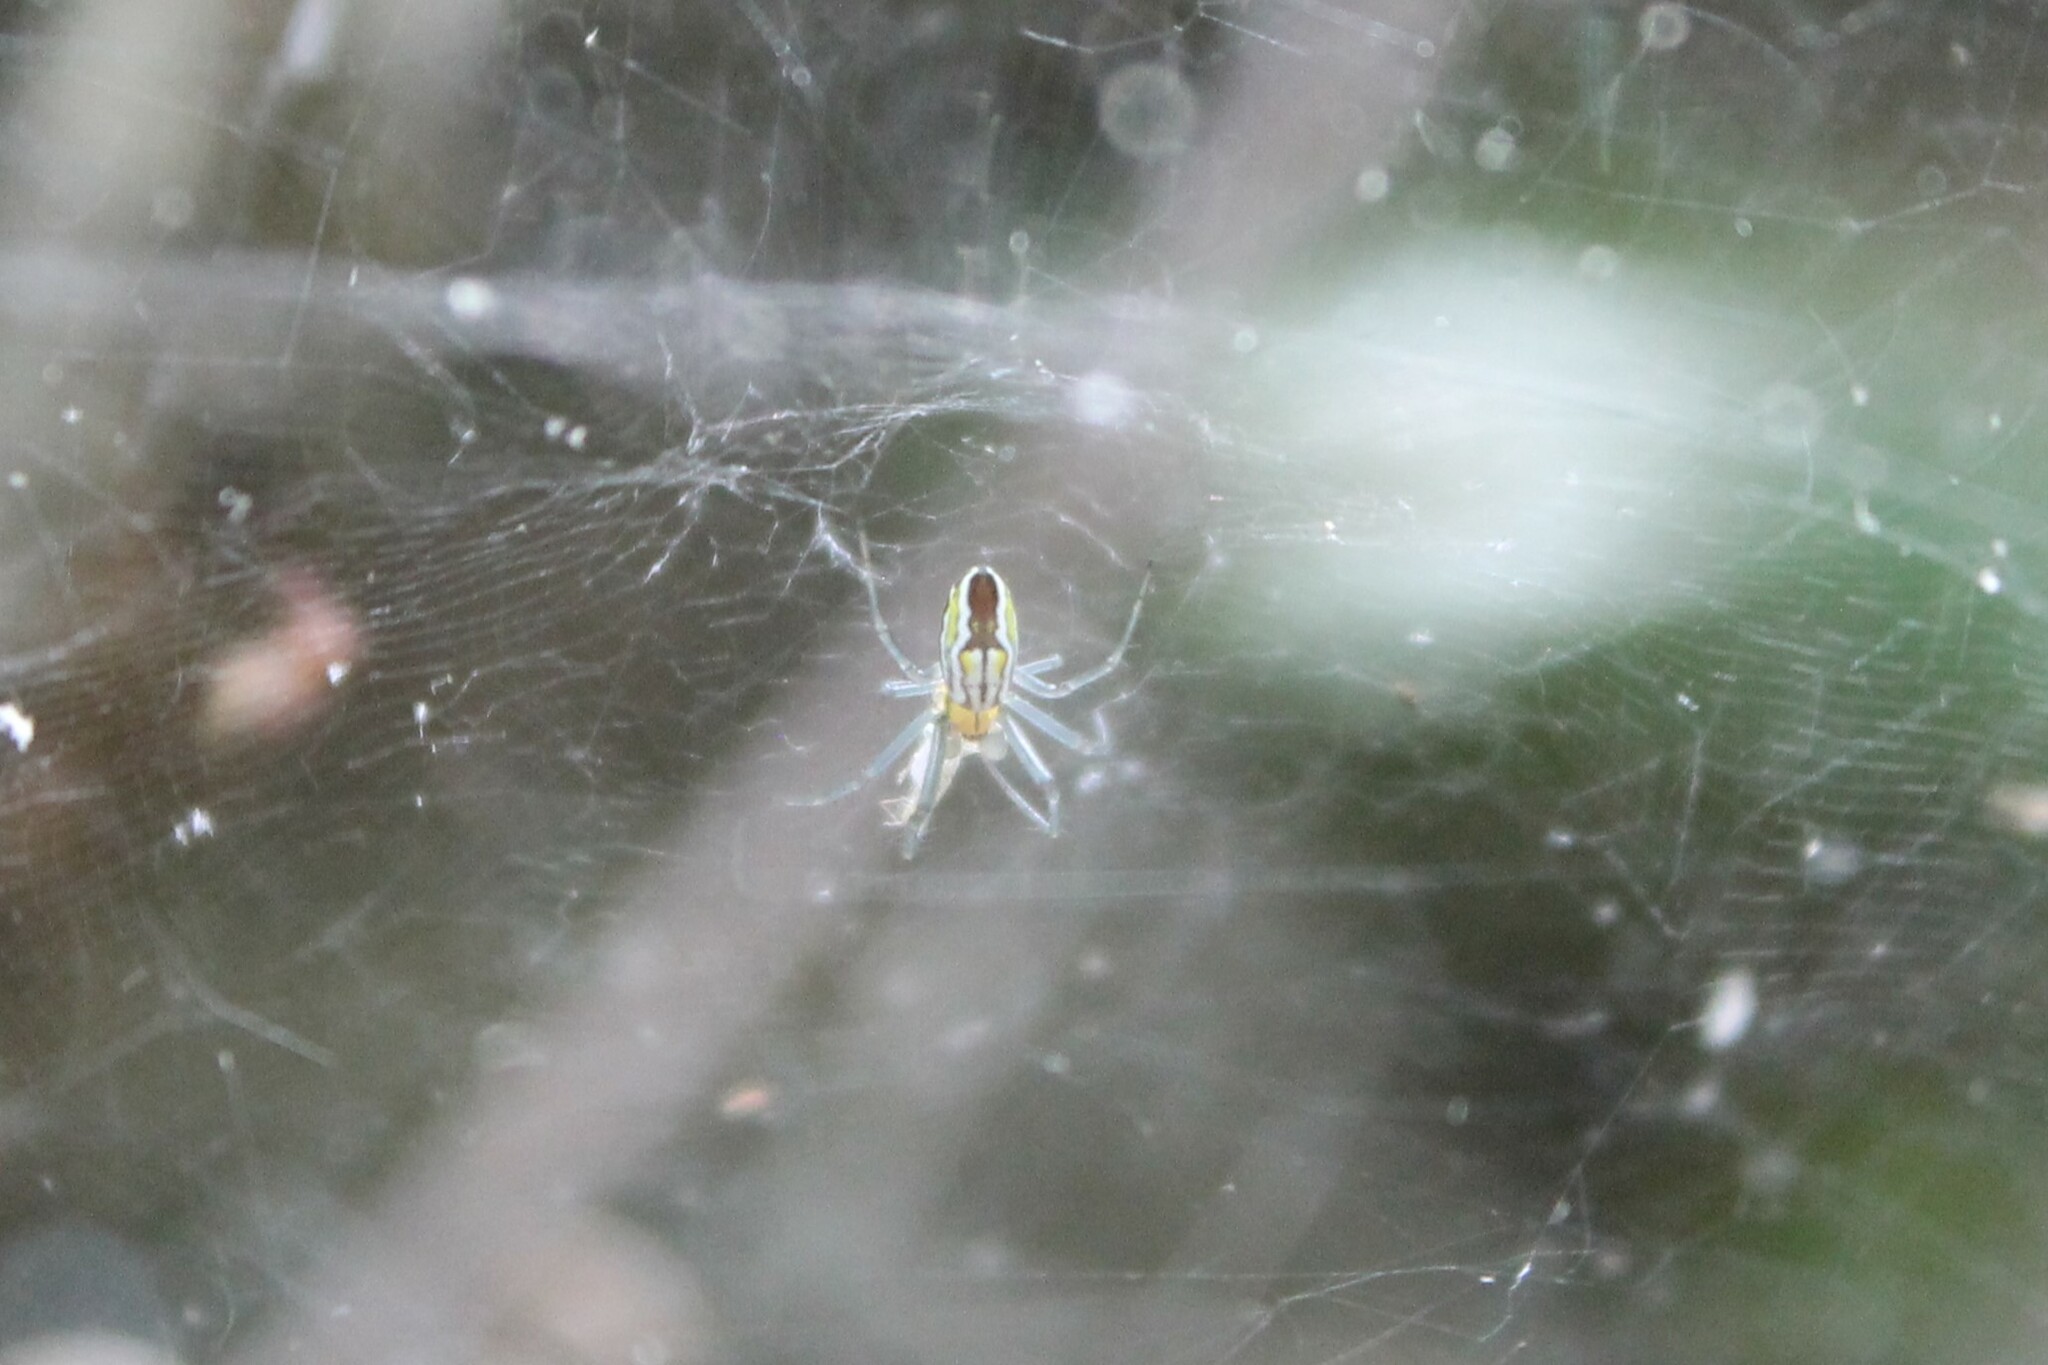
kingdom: Animalia
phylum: Arthropoda
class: Arachnida
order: Araneae
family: Araneidae
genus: Mecynogea
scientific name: Mecynogea lemniscata
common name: Orb weavers
